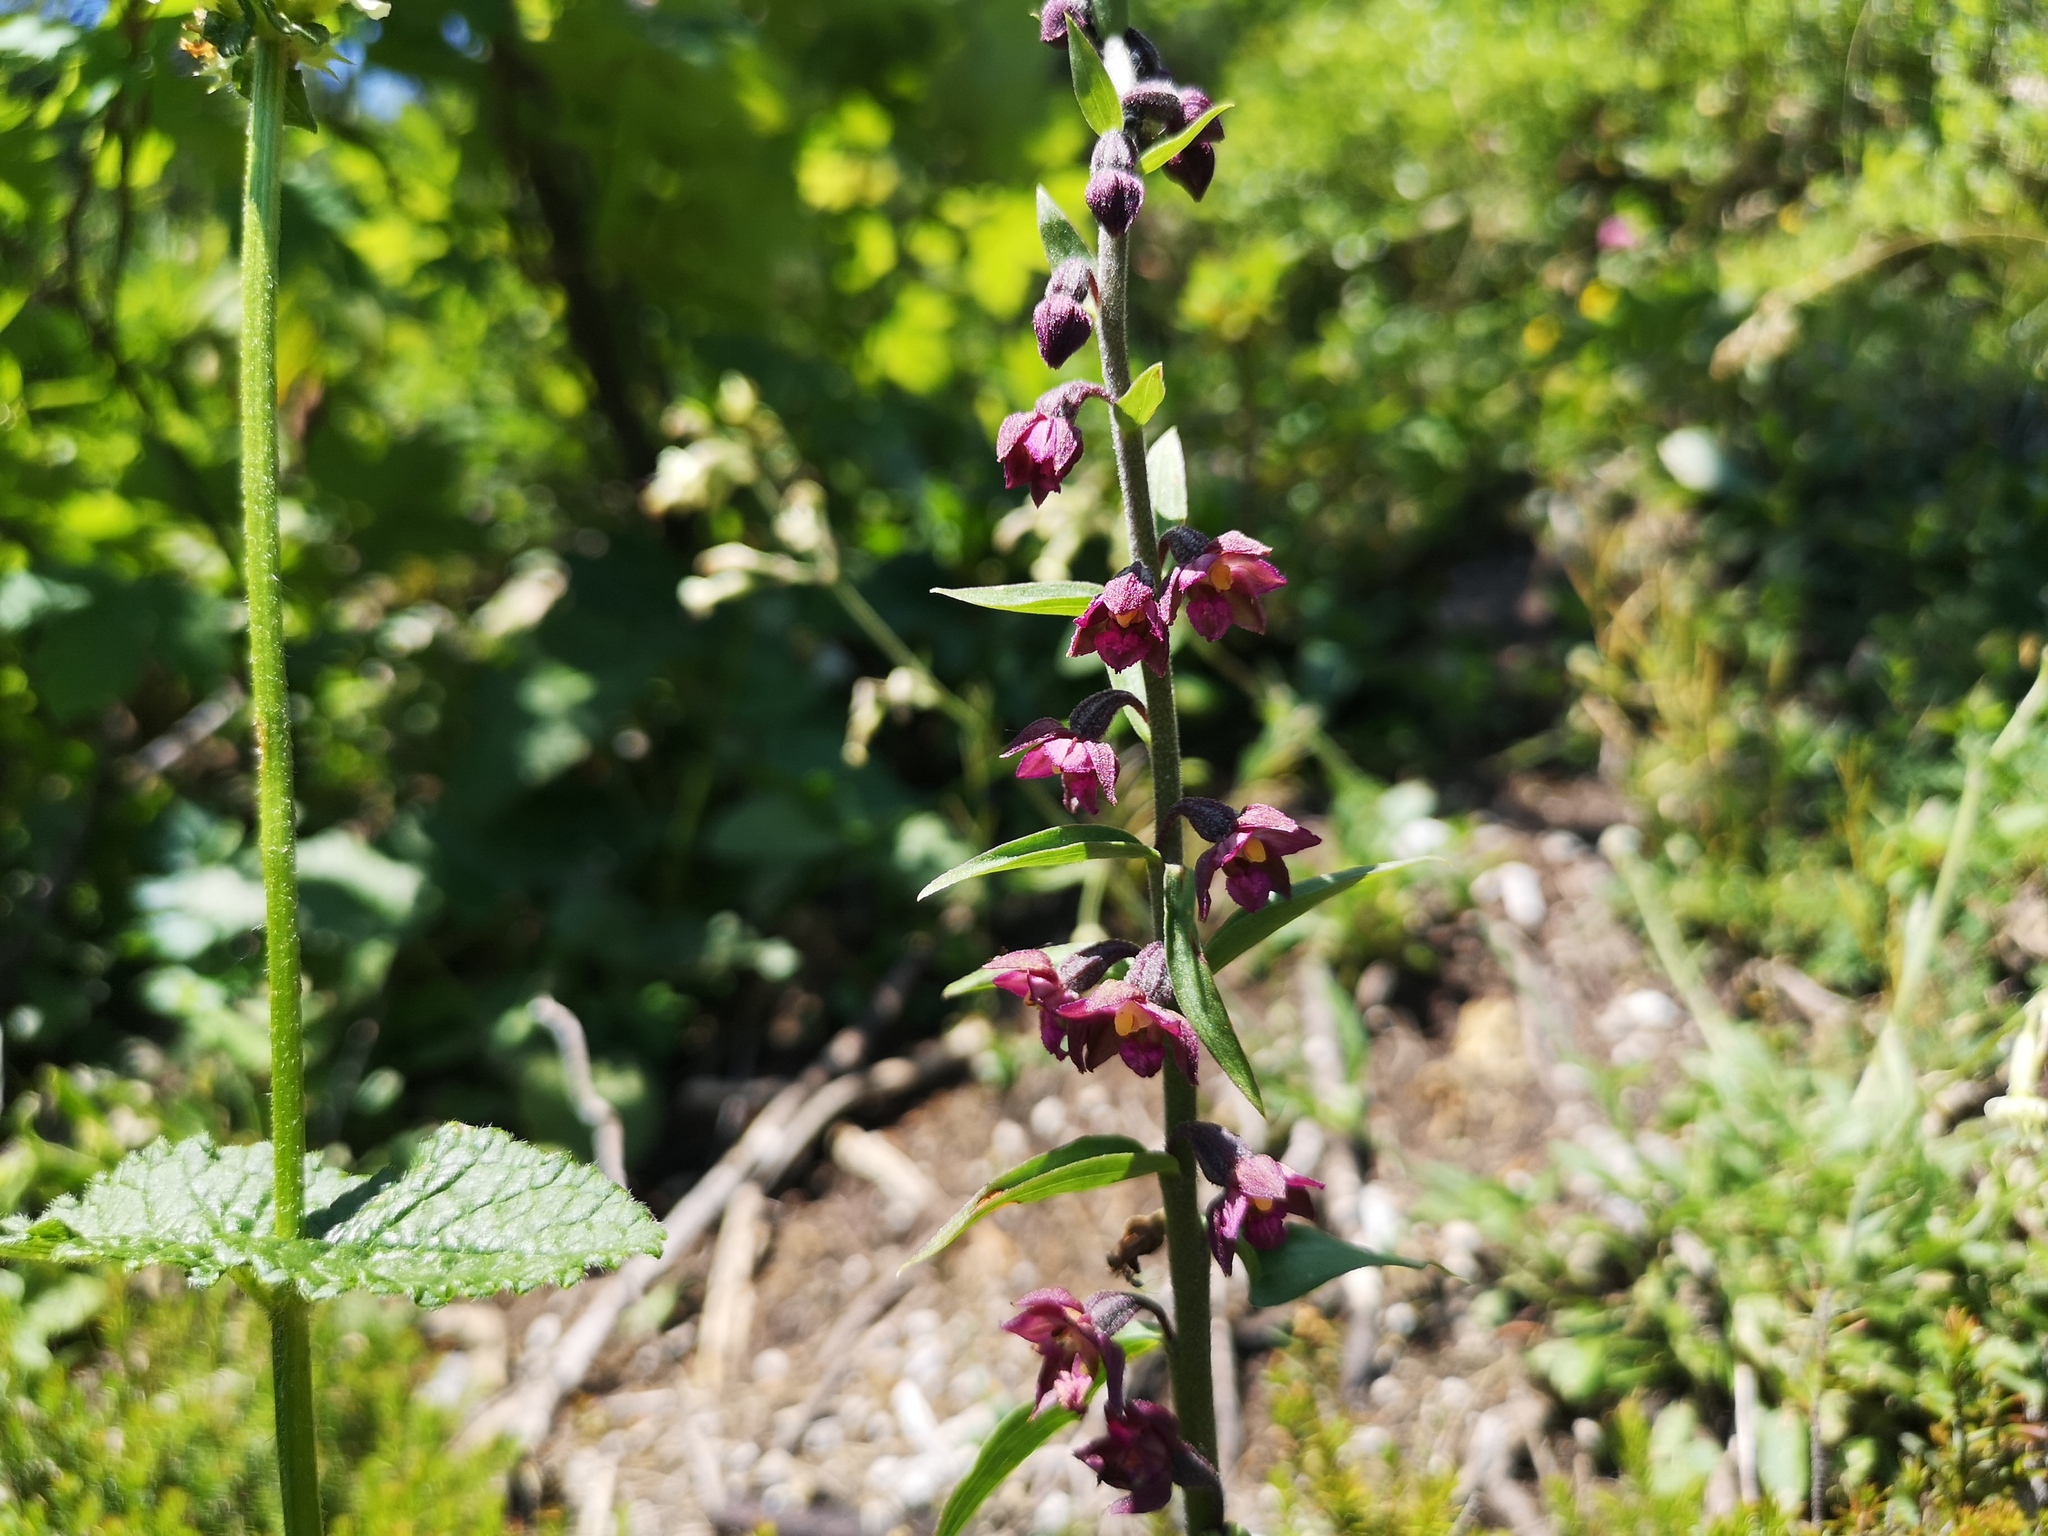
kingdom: Plantae
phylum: Tracheophyta
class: Liliopsida
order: Asparagales
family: Orchidaceae
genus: Epipactis
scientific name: Epipactis atrorubens
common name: Dark-red helleborine
